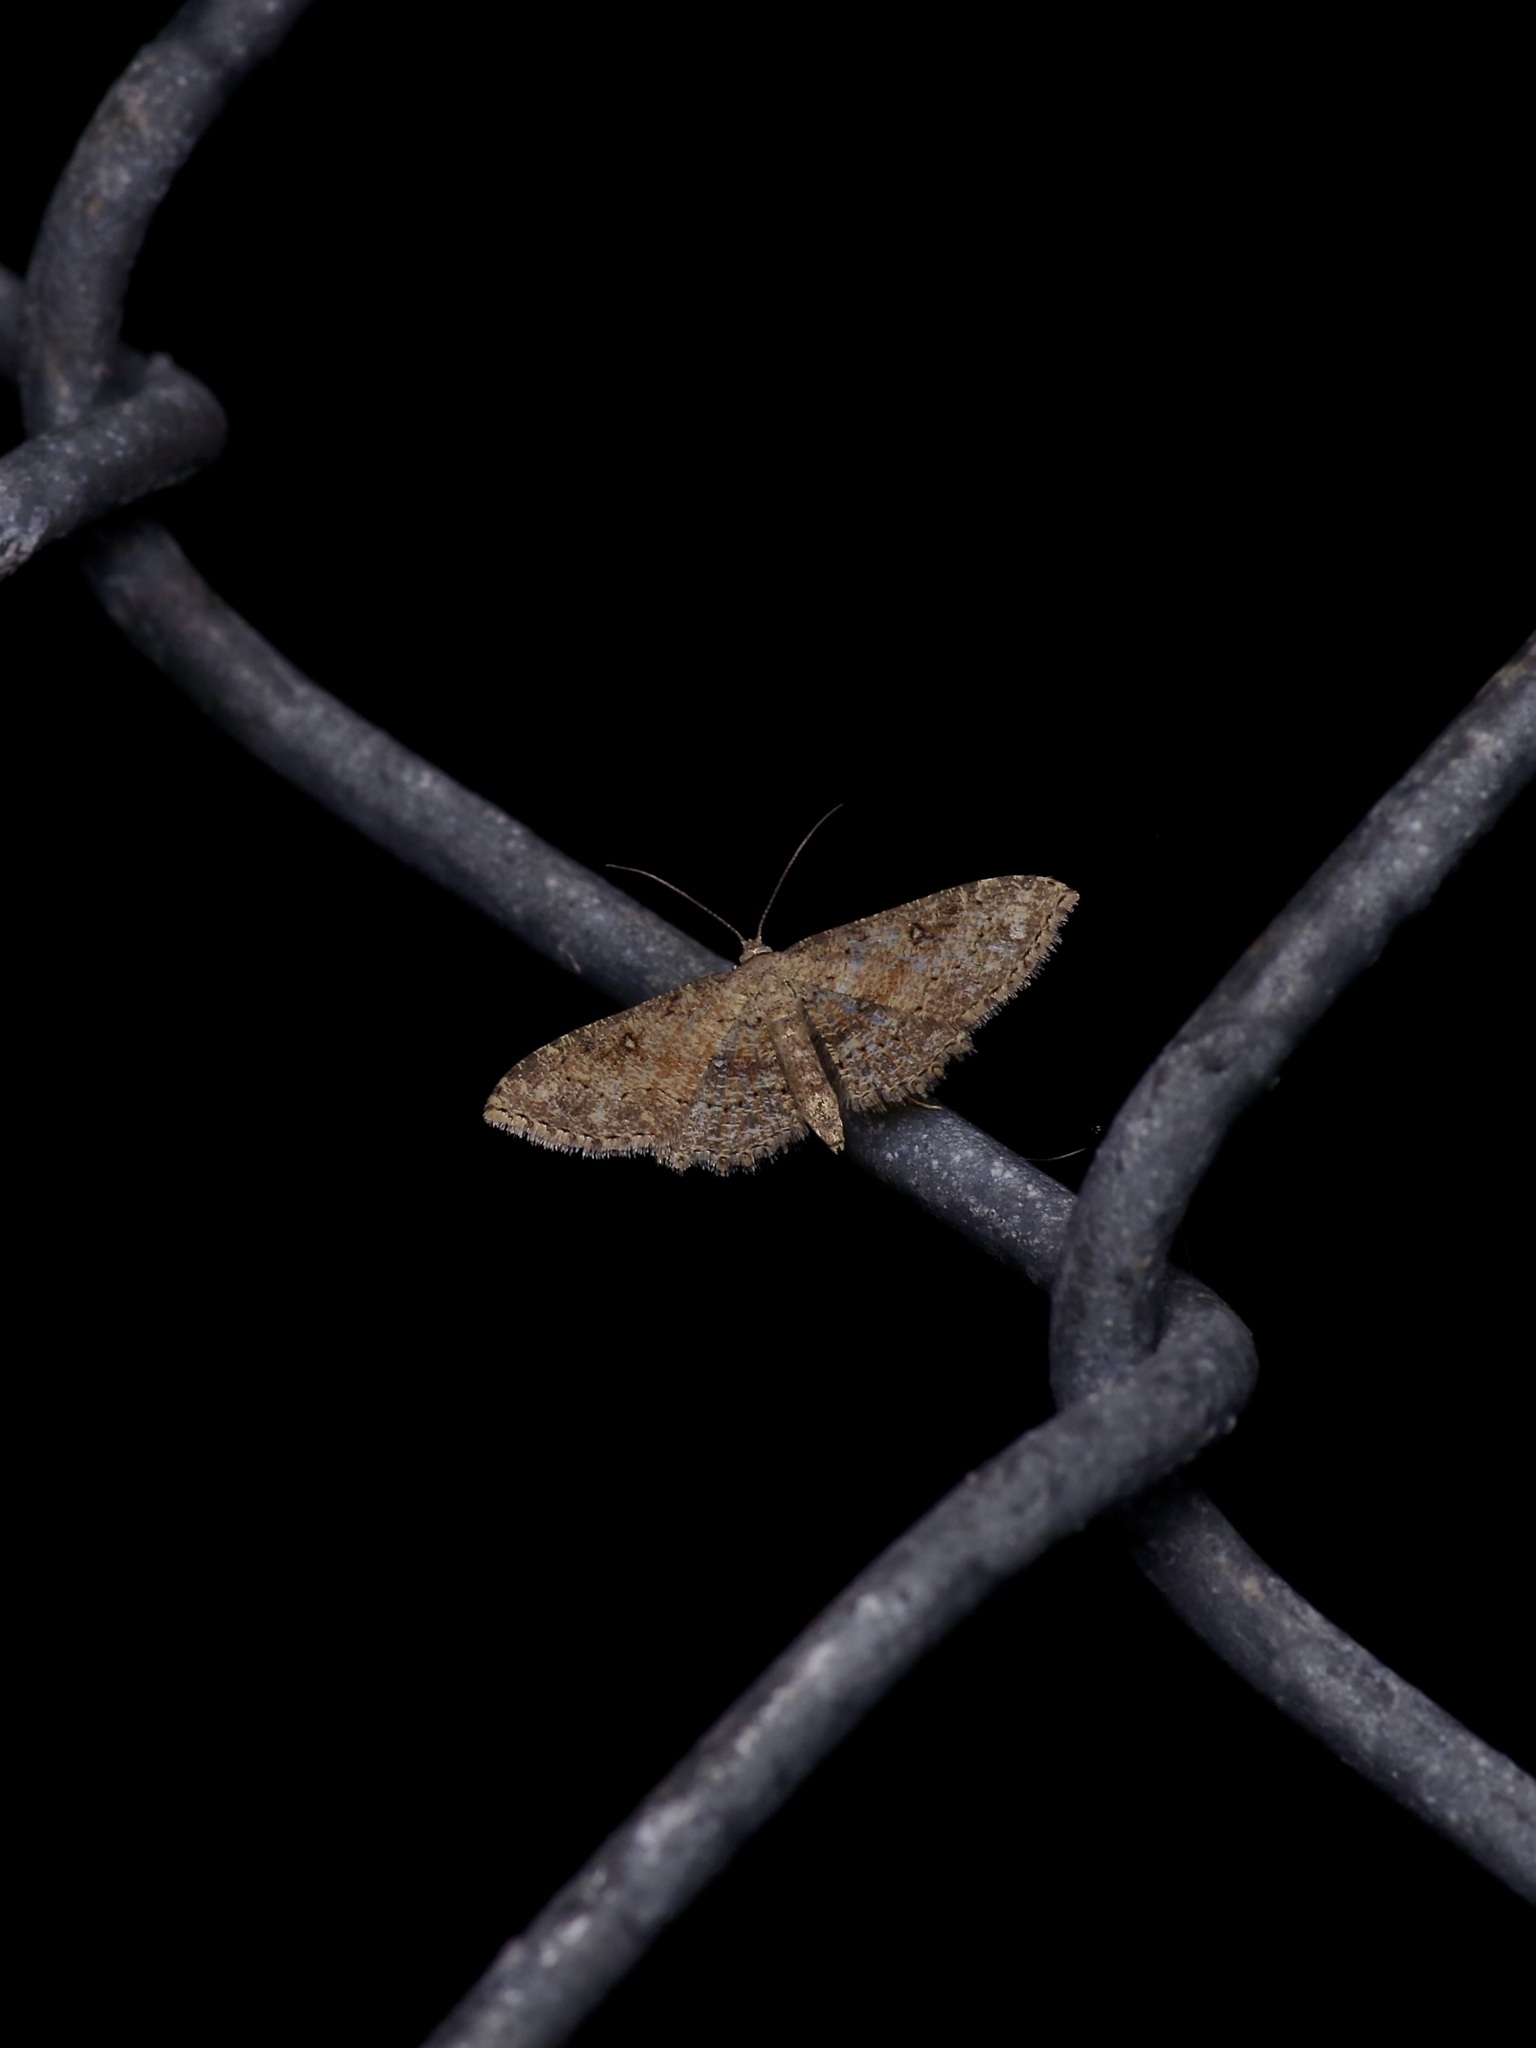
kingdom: Animalia
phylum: Arthropoda
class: Insecta
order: Lepidoptera
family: Geometridae
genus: Cyclophora
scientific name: Cyclophora nanaria
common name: Cankerworm
